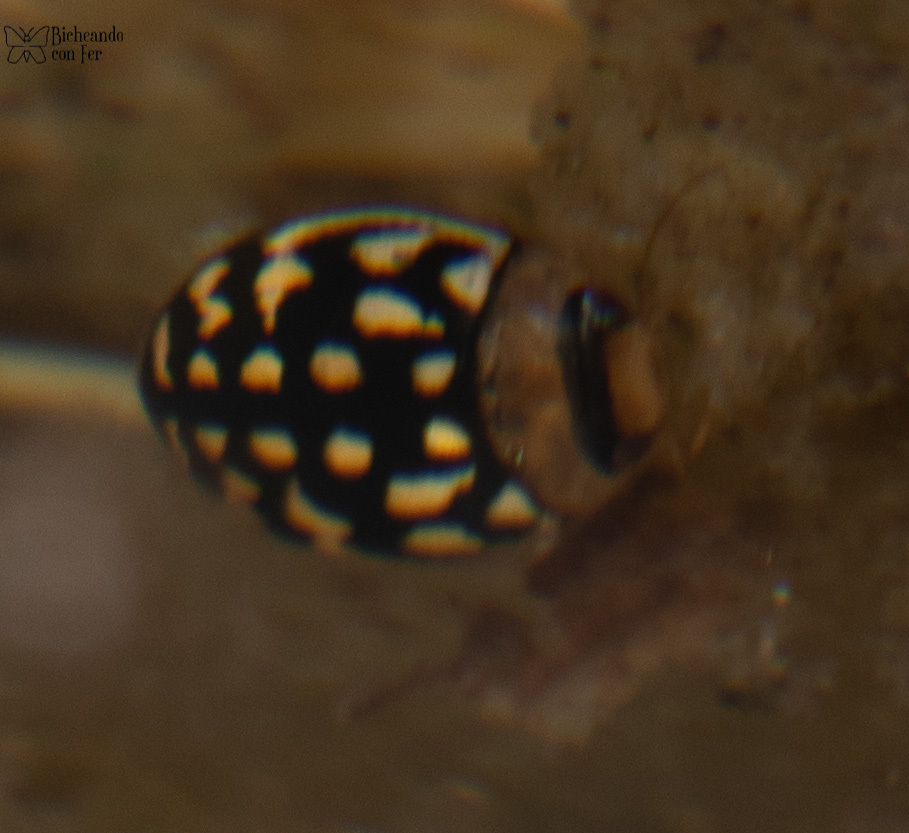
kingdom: Animalia
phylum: Arthropoda
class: Insecta
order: Coleoptera
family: Dytiscidae
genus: Laccophilus
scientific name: Laccophilus pictus
